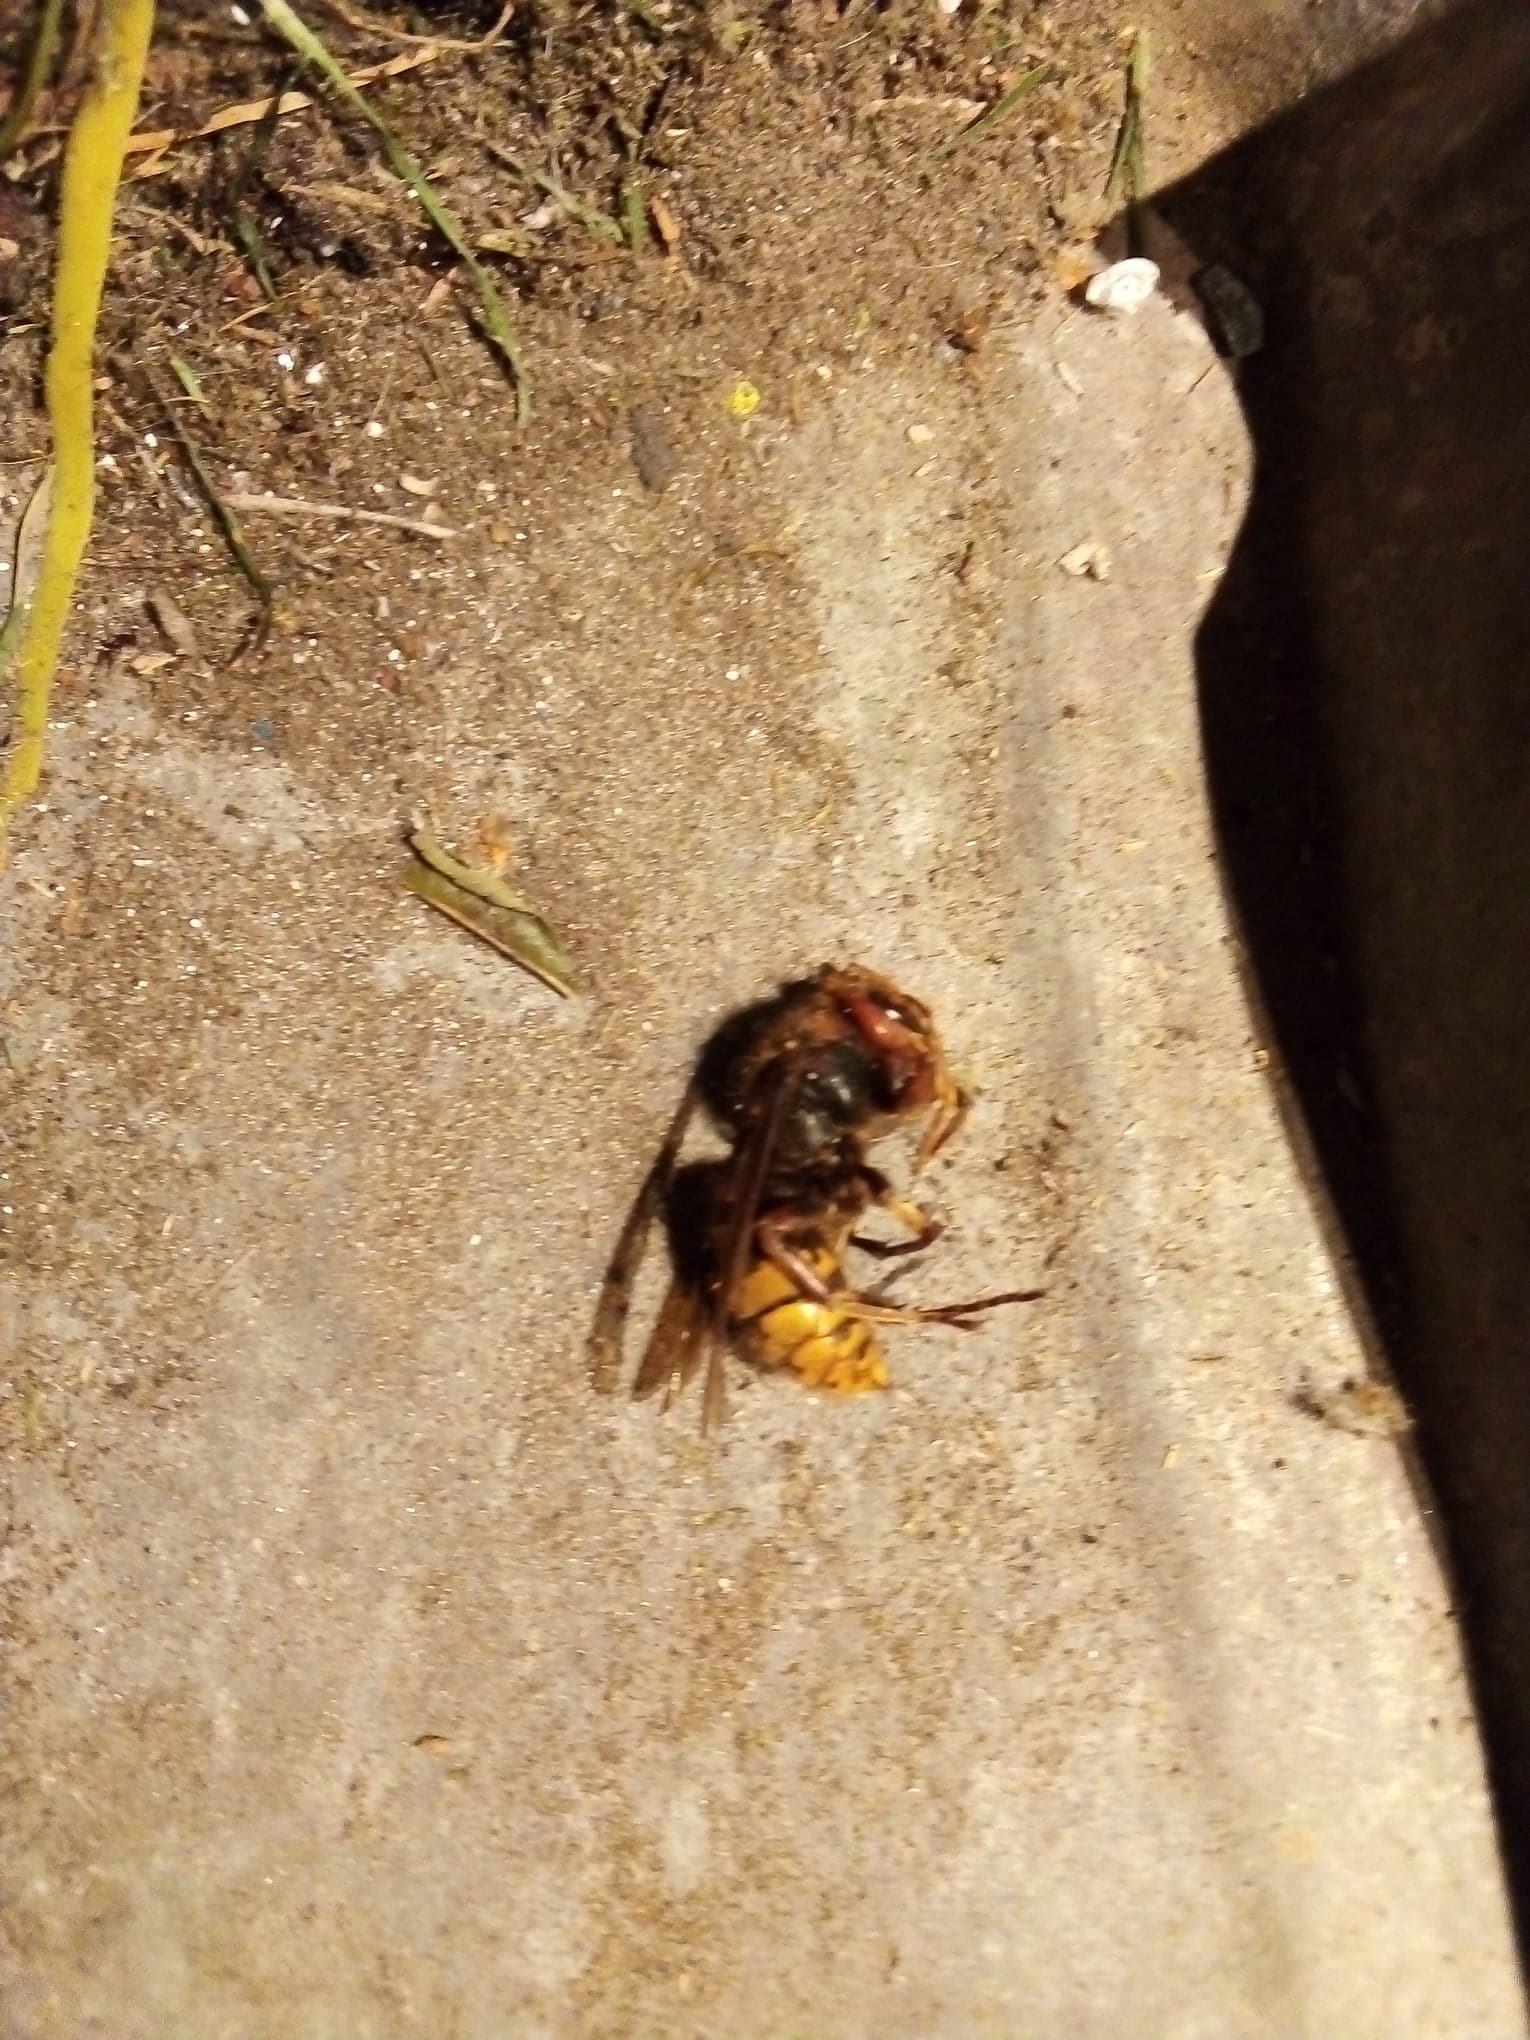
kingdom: Animalia
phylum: Arthropoda
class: Insecta
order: Hymenoptera
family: Vespidae
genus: Vespa
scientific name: Vespa crabro
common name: Hornet
